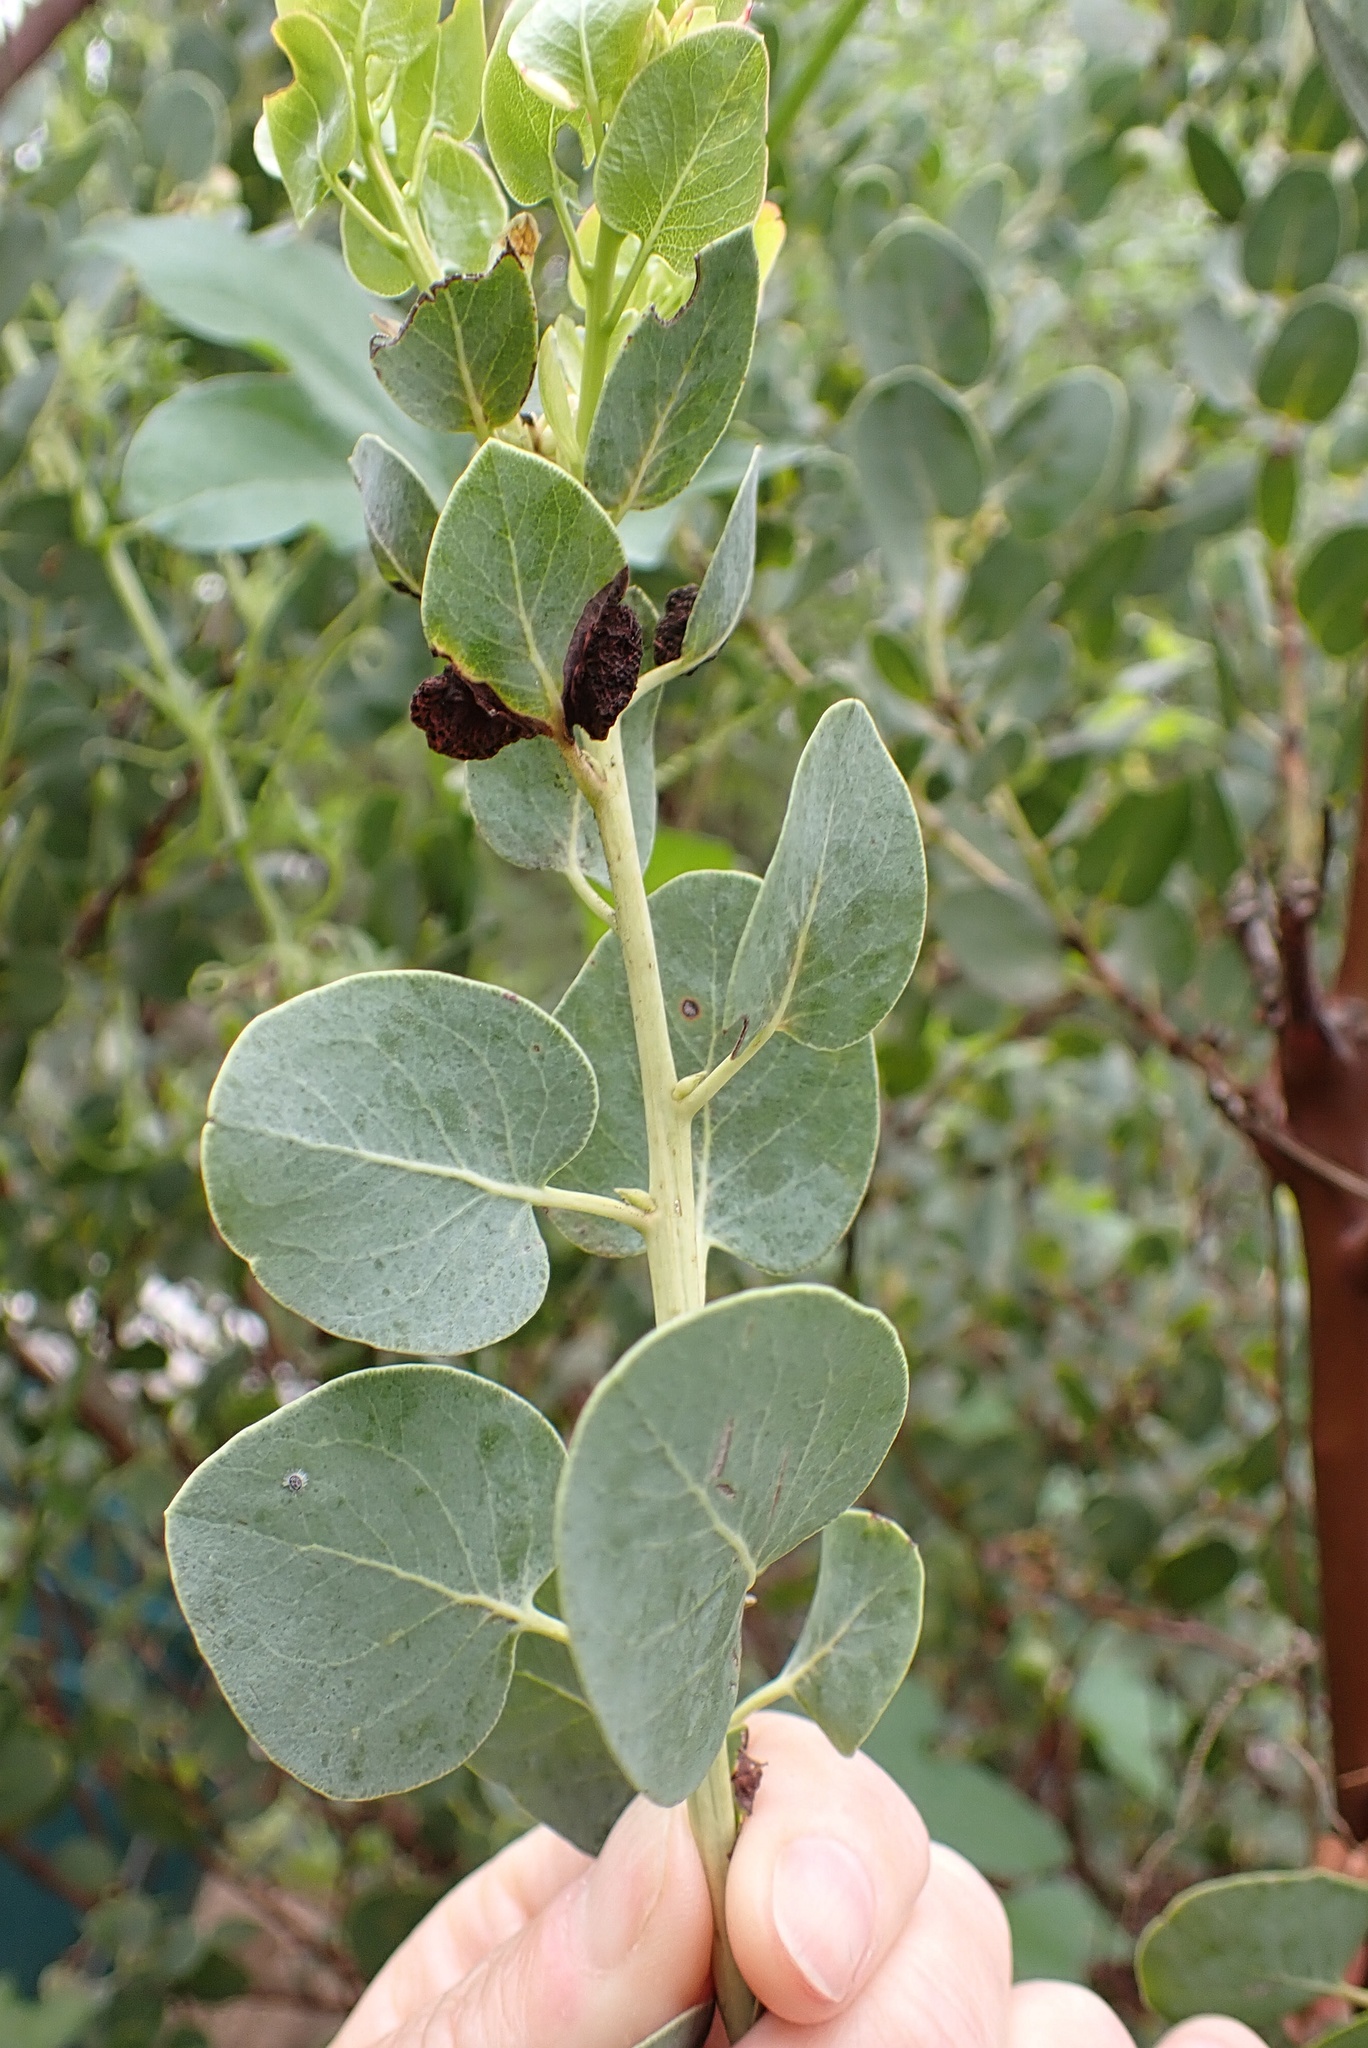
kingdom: Plantae
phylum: Tracheophyta
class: Magnoliopsida
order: Ericales
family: Ericaceae
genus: Arctostaphylos
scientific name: Arctostaphylos glauca
